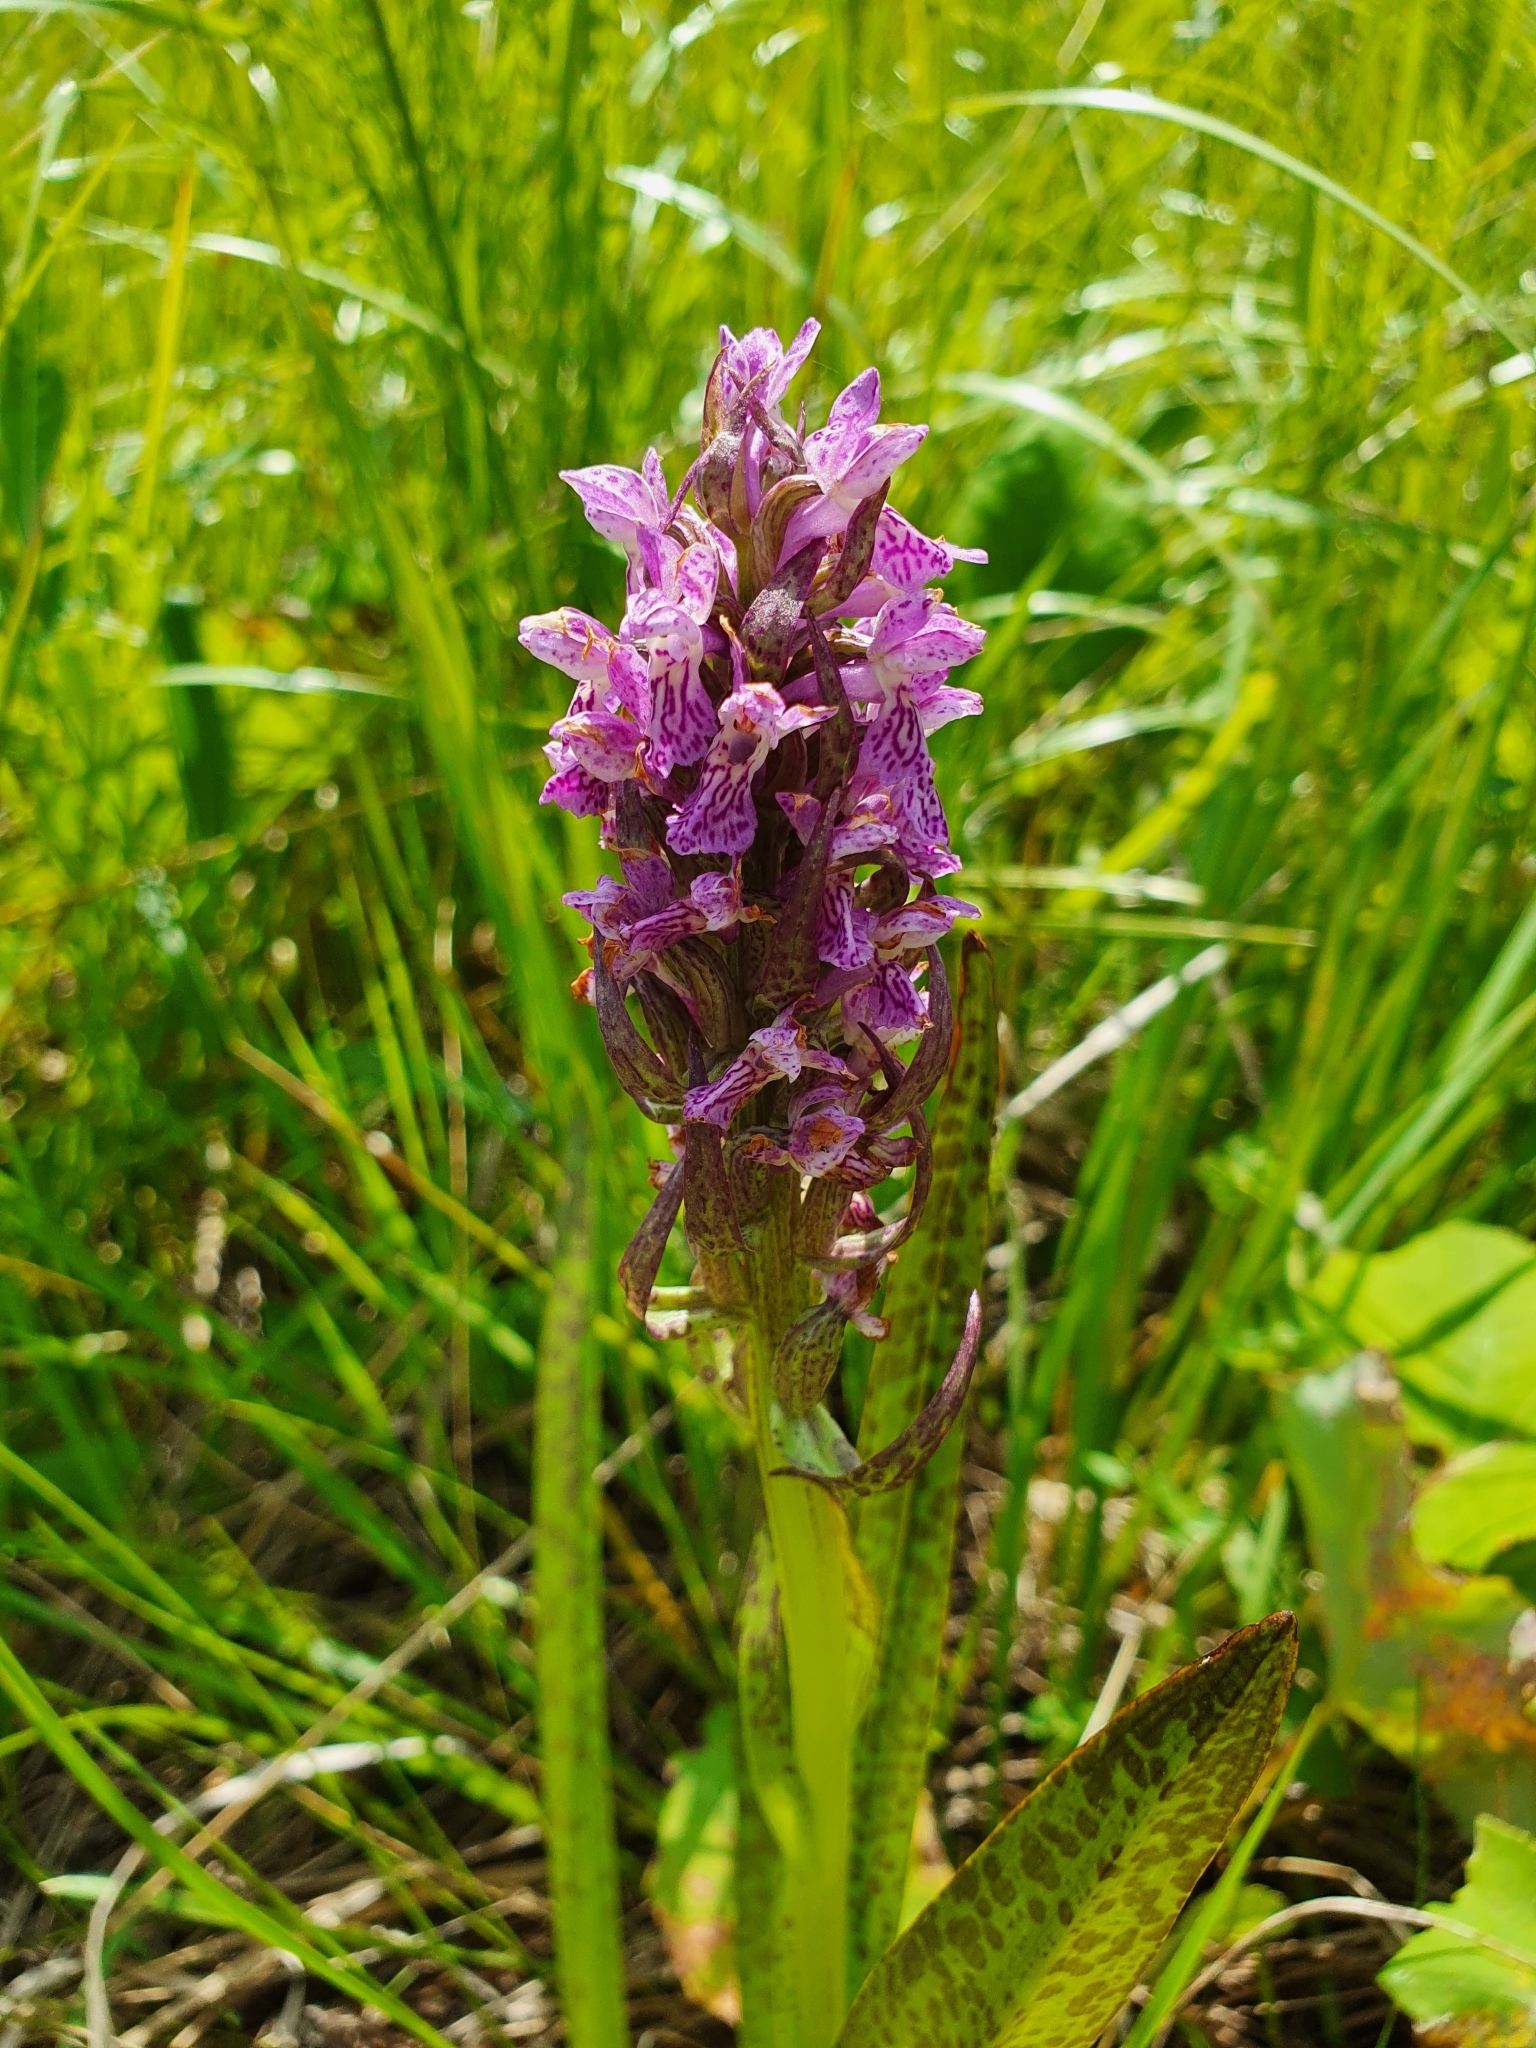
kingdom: Plantae
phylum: Tracheophyta
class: Liliopsida
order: Asparagales
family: Orchidaceae
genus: Dactylorhiza
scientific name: Dactylorhiza incarnata
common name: Early marsh-orchid
